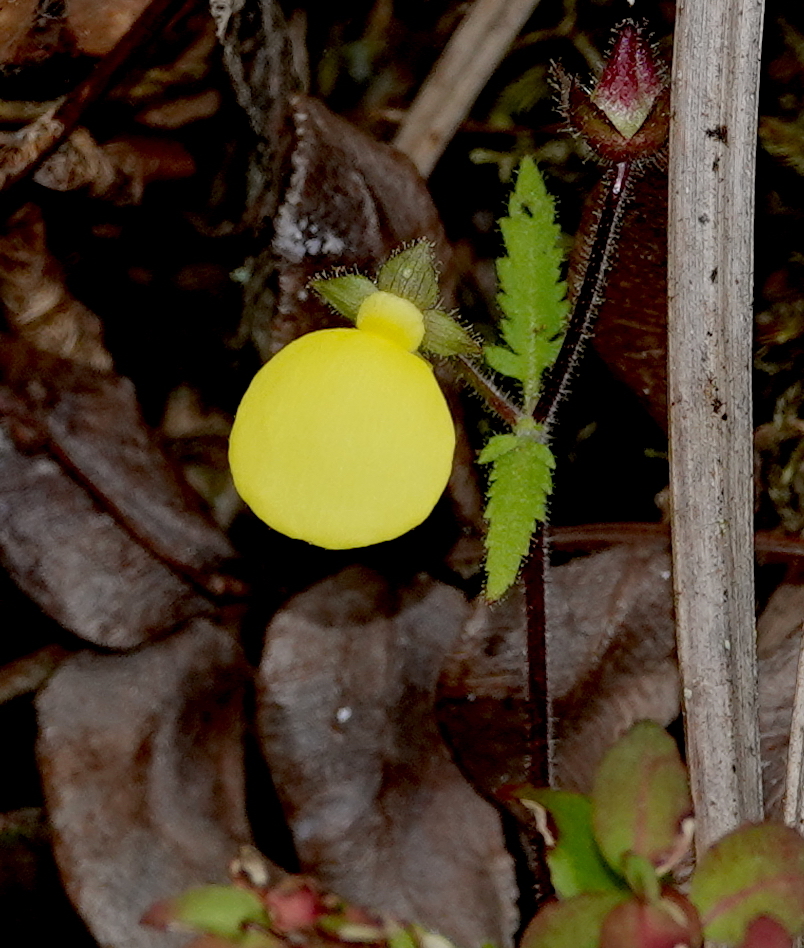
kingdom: Plantae
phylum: Tracheophyta
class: Magnoliopsida
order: Lamiales
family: Calceolariaceae
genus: Calceolaria
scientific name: Calceolaria tripartita
